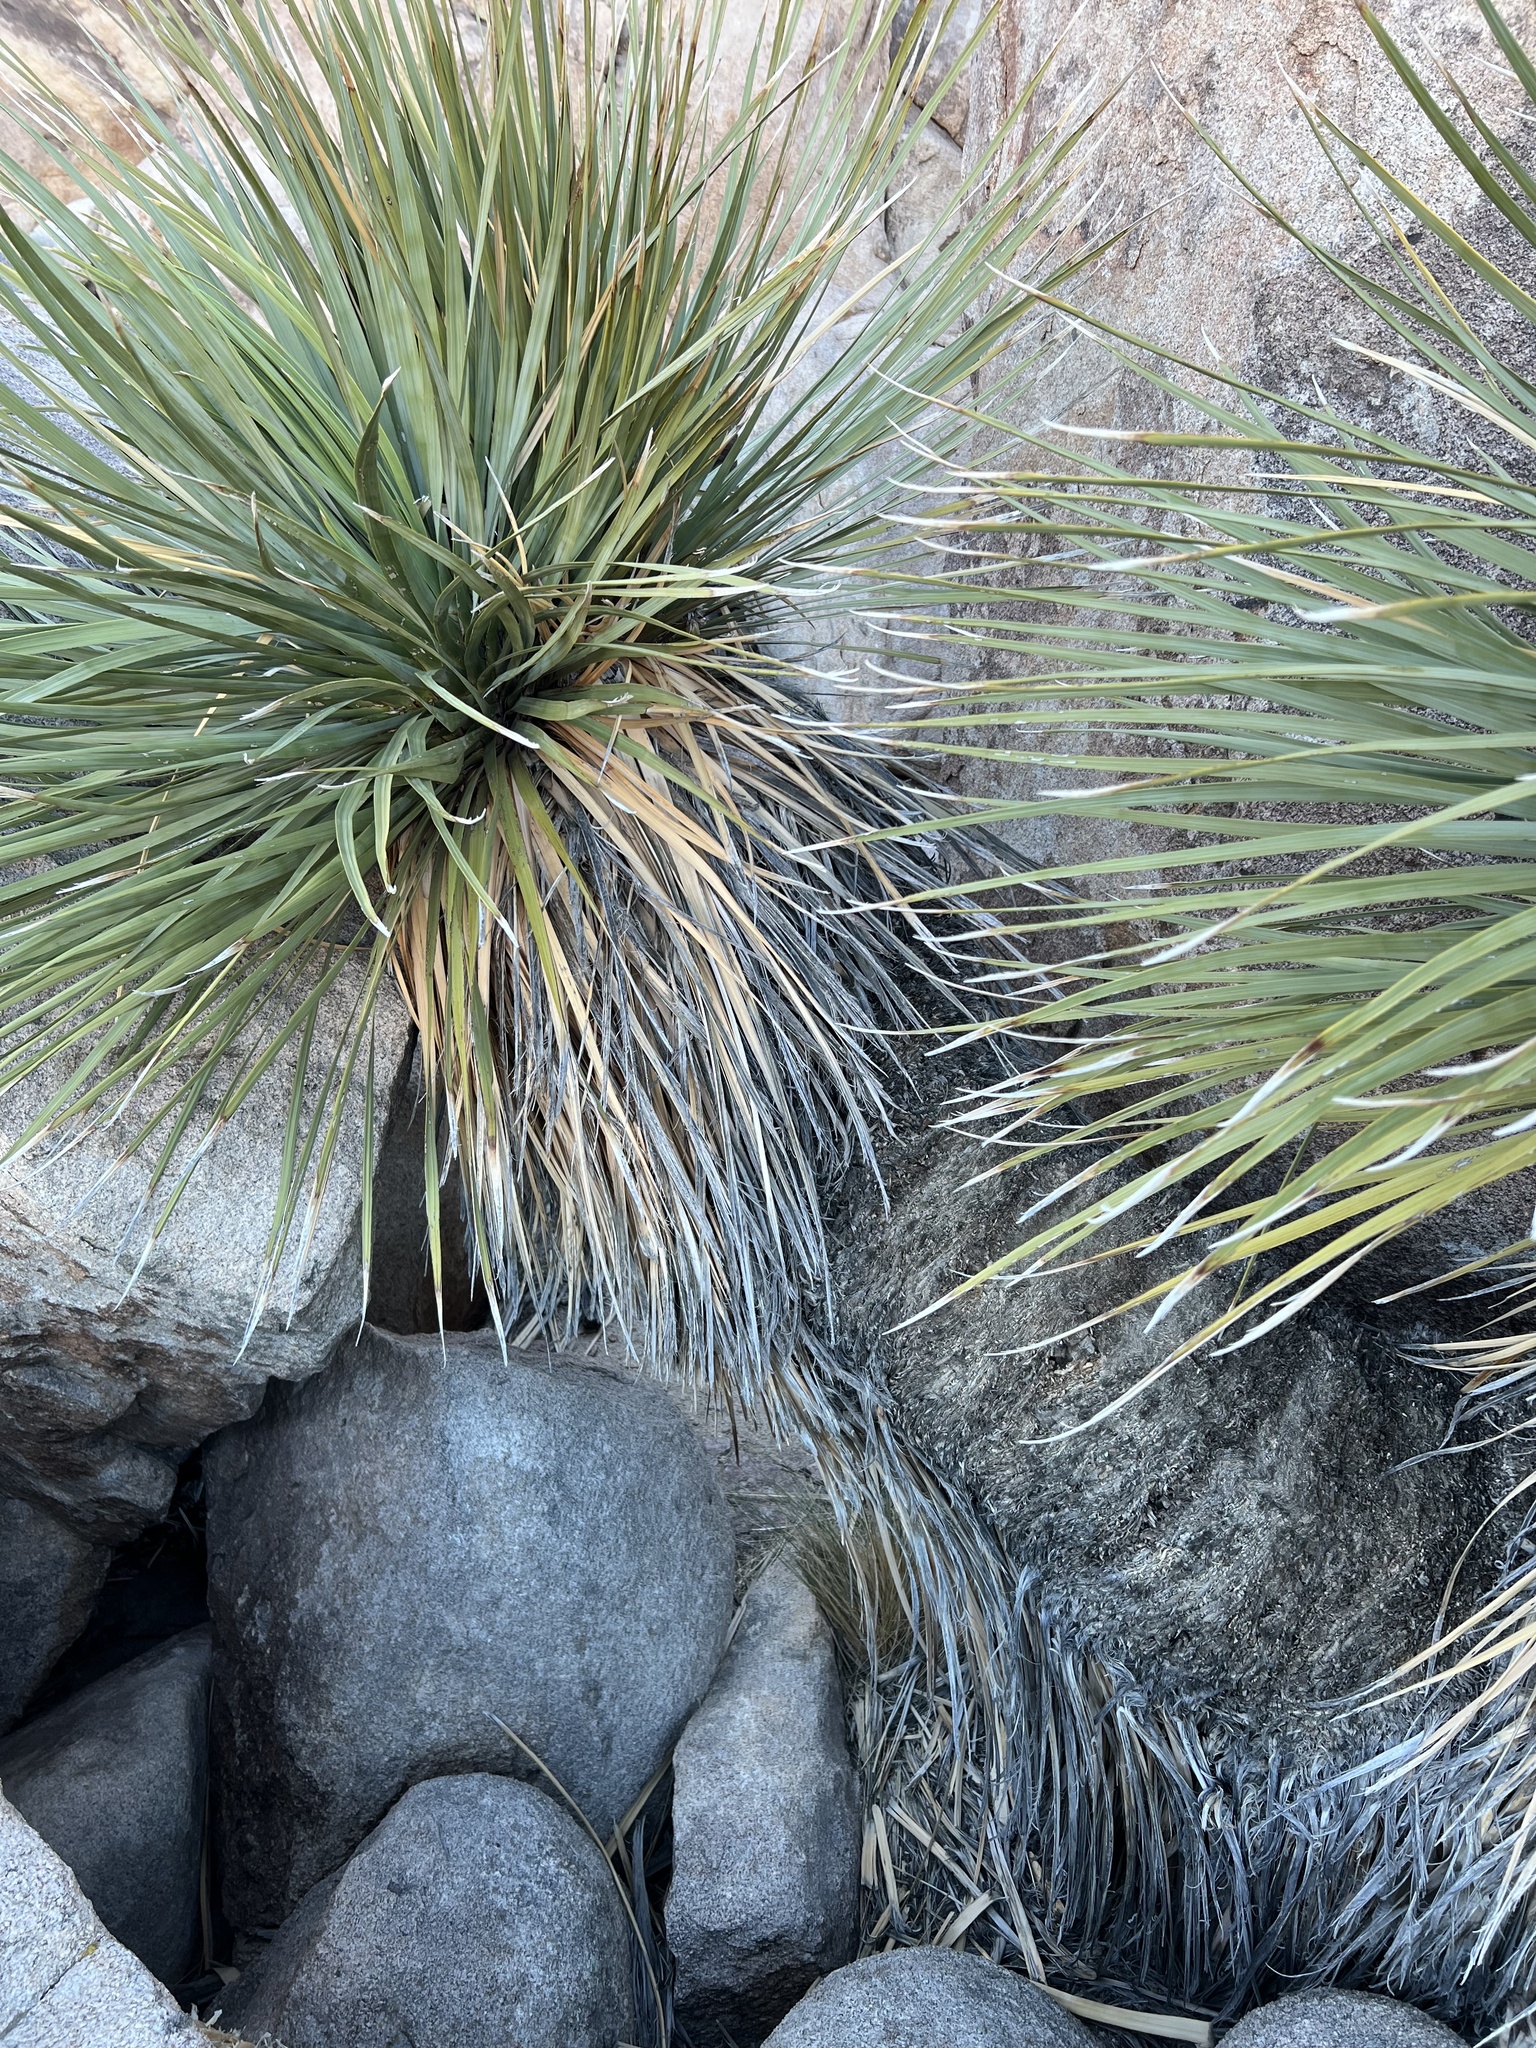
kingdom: Plantae
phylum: Tracheophyta
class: Liliopsida
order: Asparagales
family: Asparagaceae
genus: Nolina
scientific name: Nolina parryi
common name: Parry nolina
